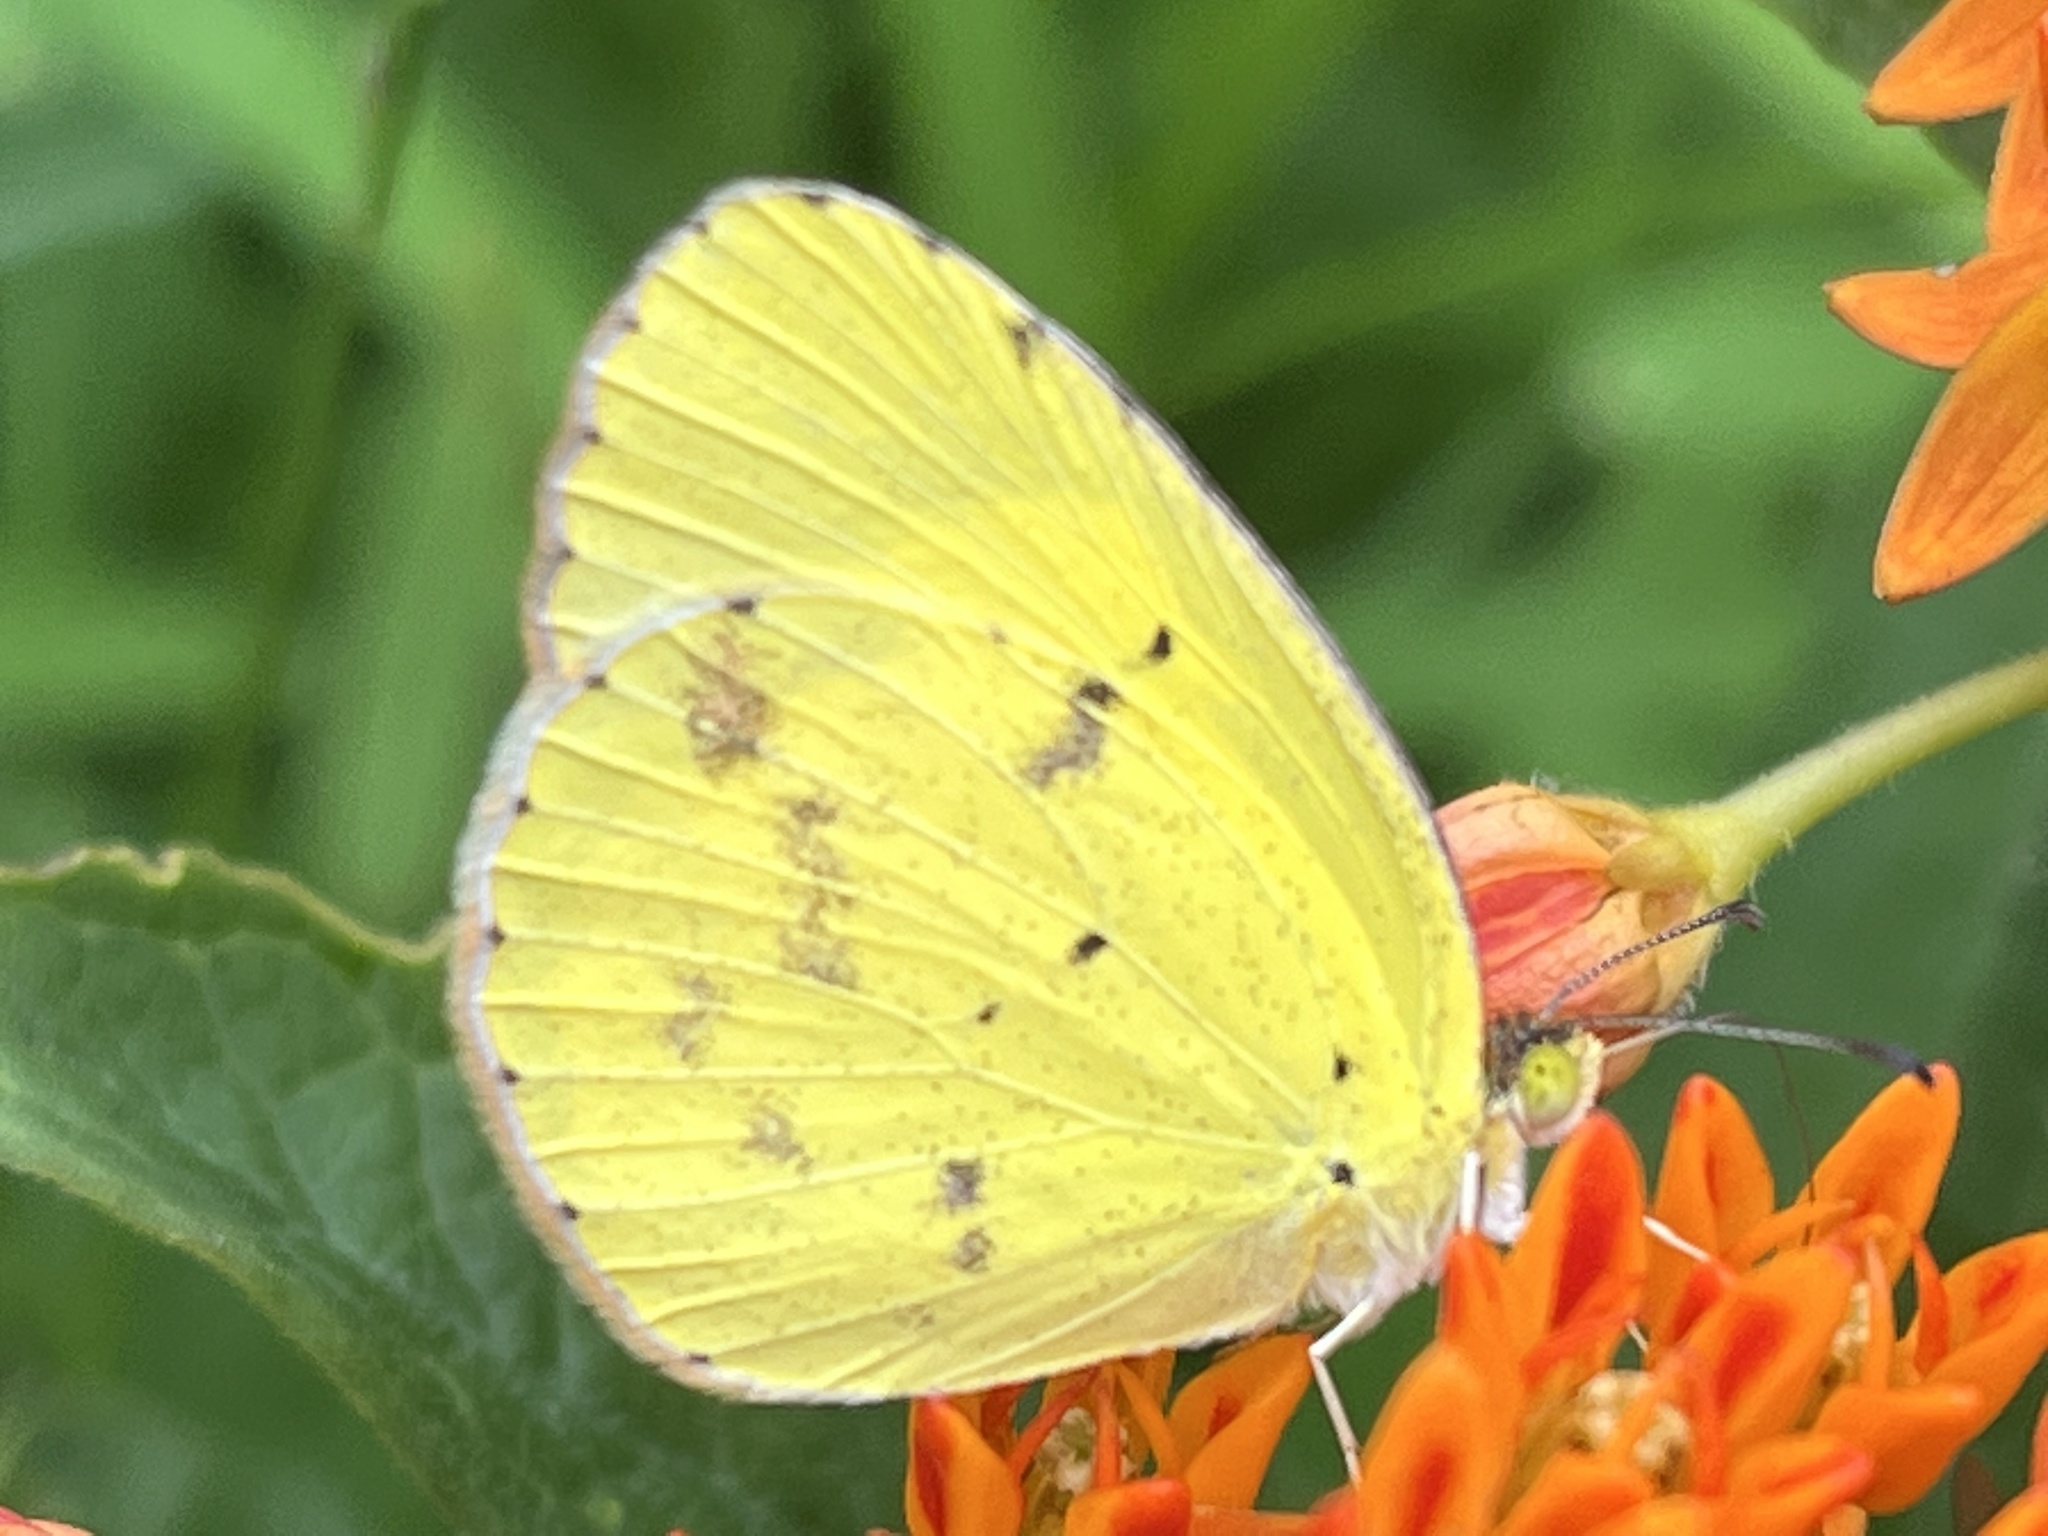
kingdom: Animalia
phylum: Arthropoda
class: Insecta
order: Lepidoptera
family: Pieridae
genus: Pyrisitia
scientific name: Pyrisitia lisa
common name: Little yellow
